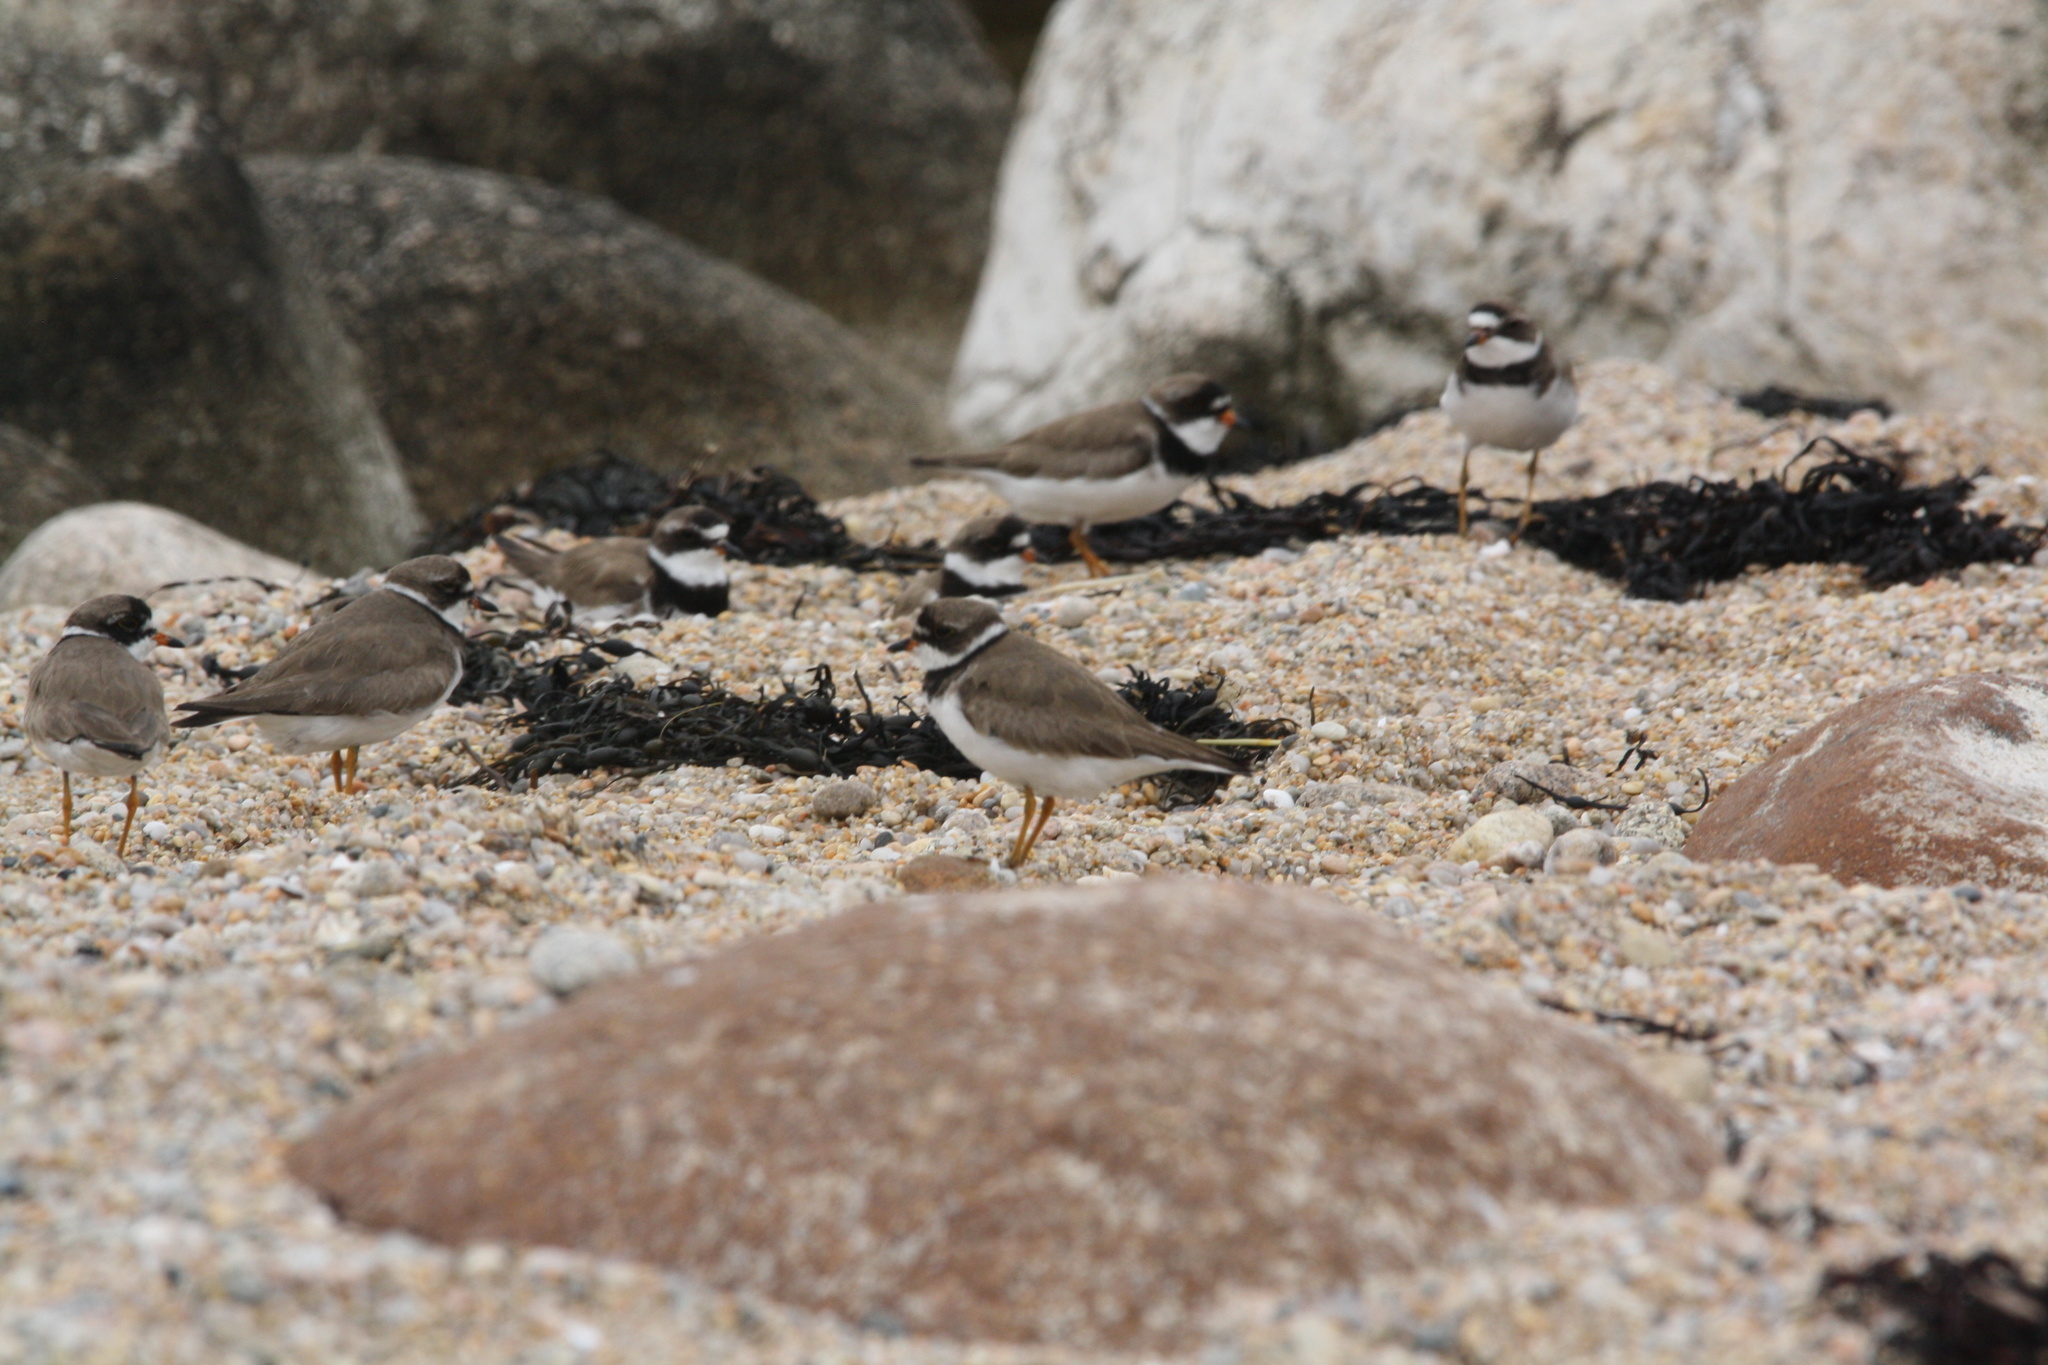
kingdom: Animalia
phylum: Chordata
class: Aves
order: Charadriiformes
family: Charadriidae
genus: Charadrius
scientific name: Charadrius semipalmatus
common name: Semipalmated plover
